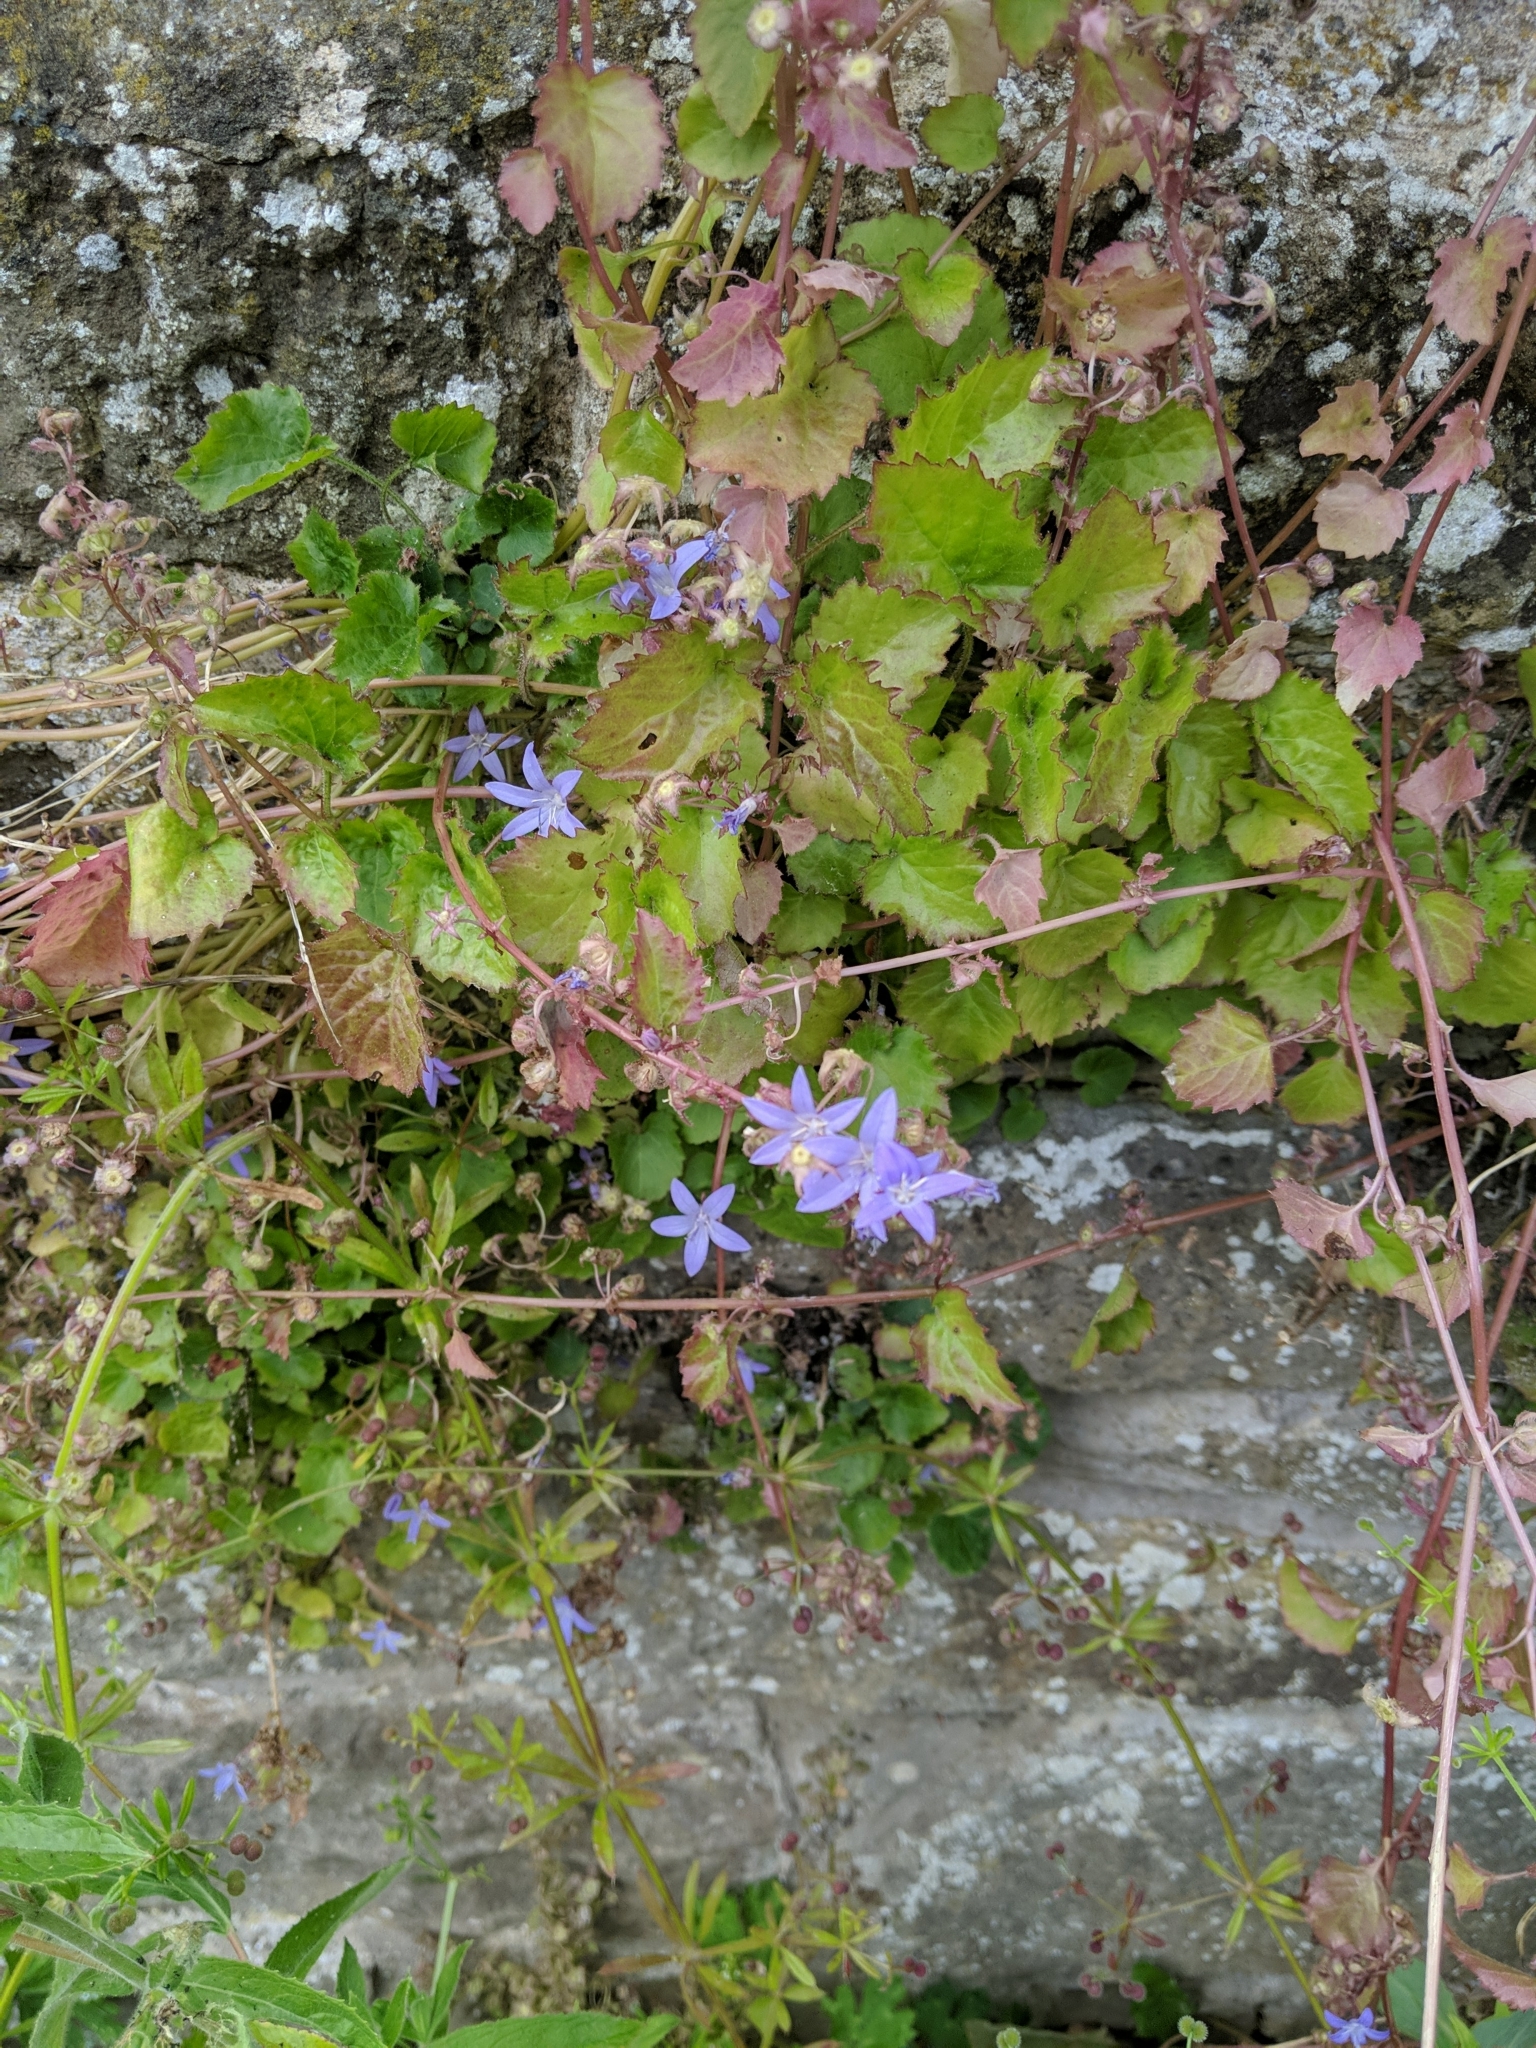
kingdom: Plantae
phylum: Tracheophyta
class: Magnoliopsida
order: Asterales
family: Campanulaceae
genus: Campanula
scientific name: Campanula poscharskyana
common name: Trailing bellflower
